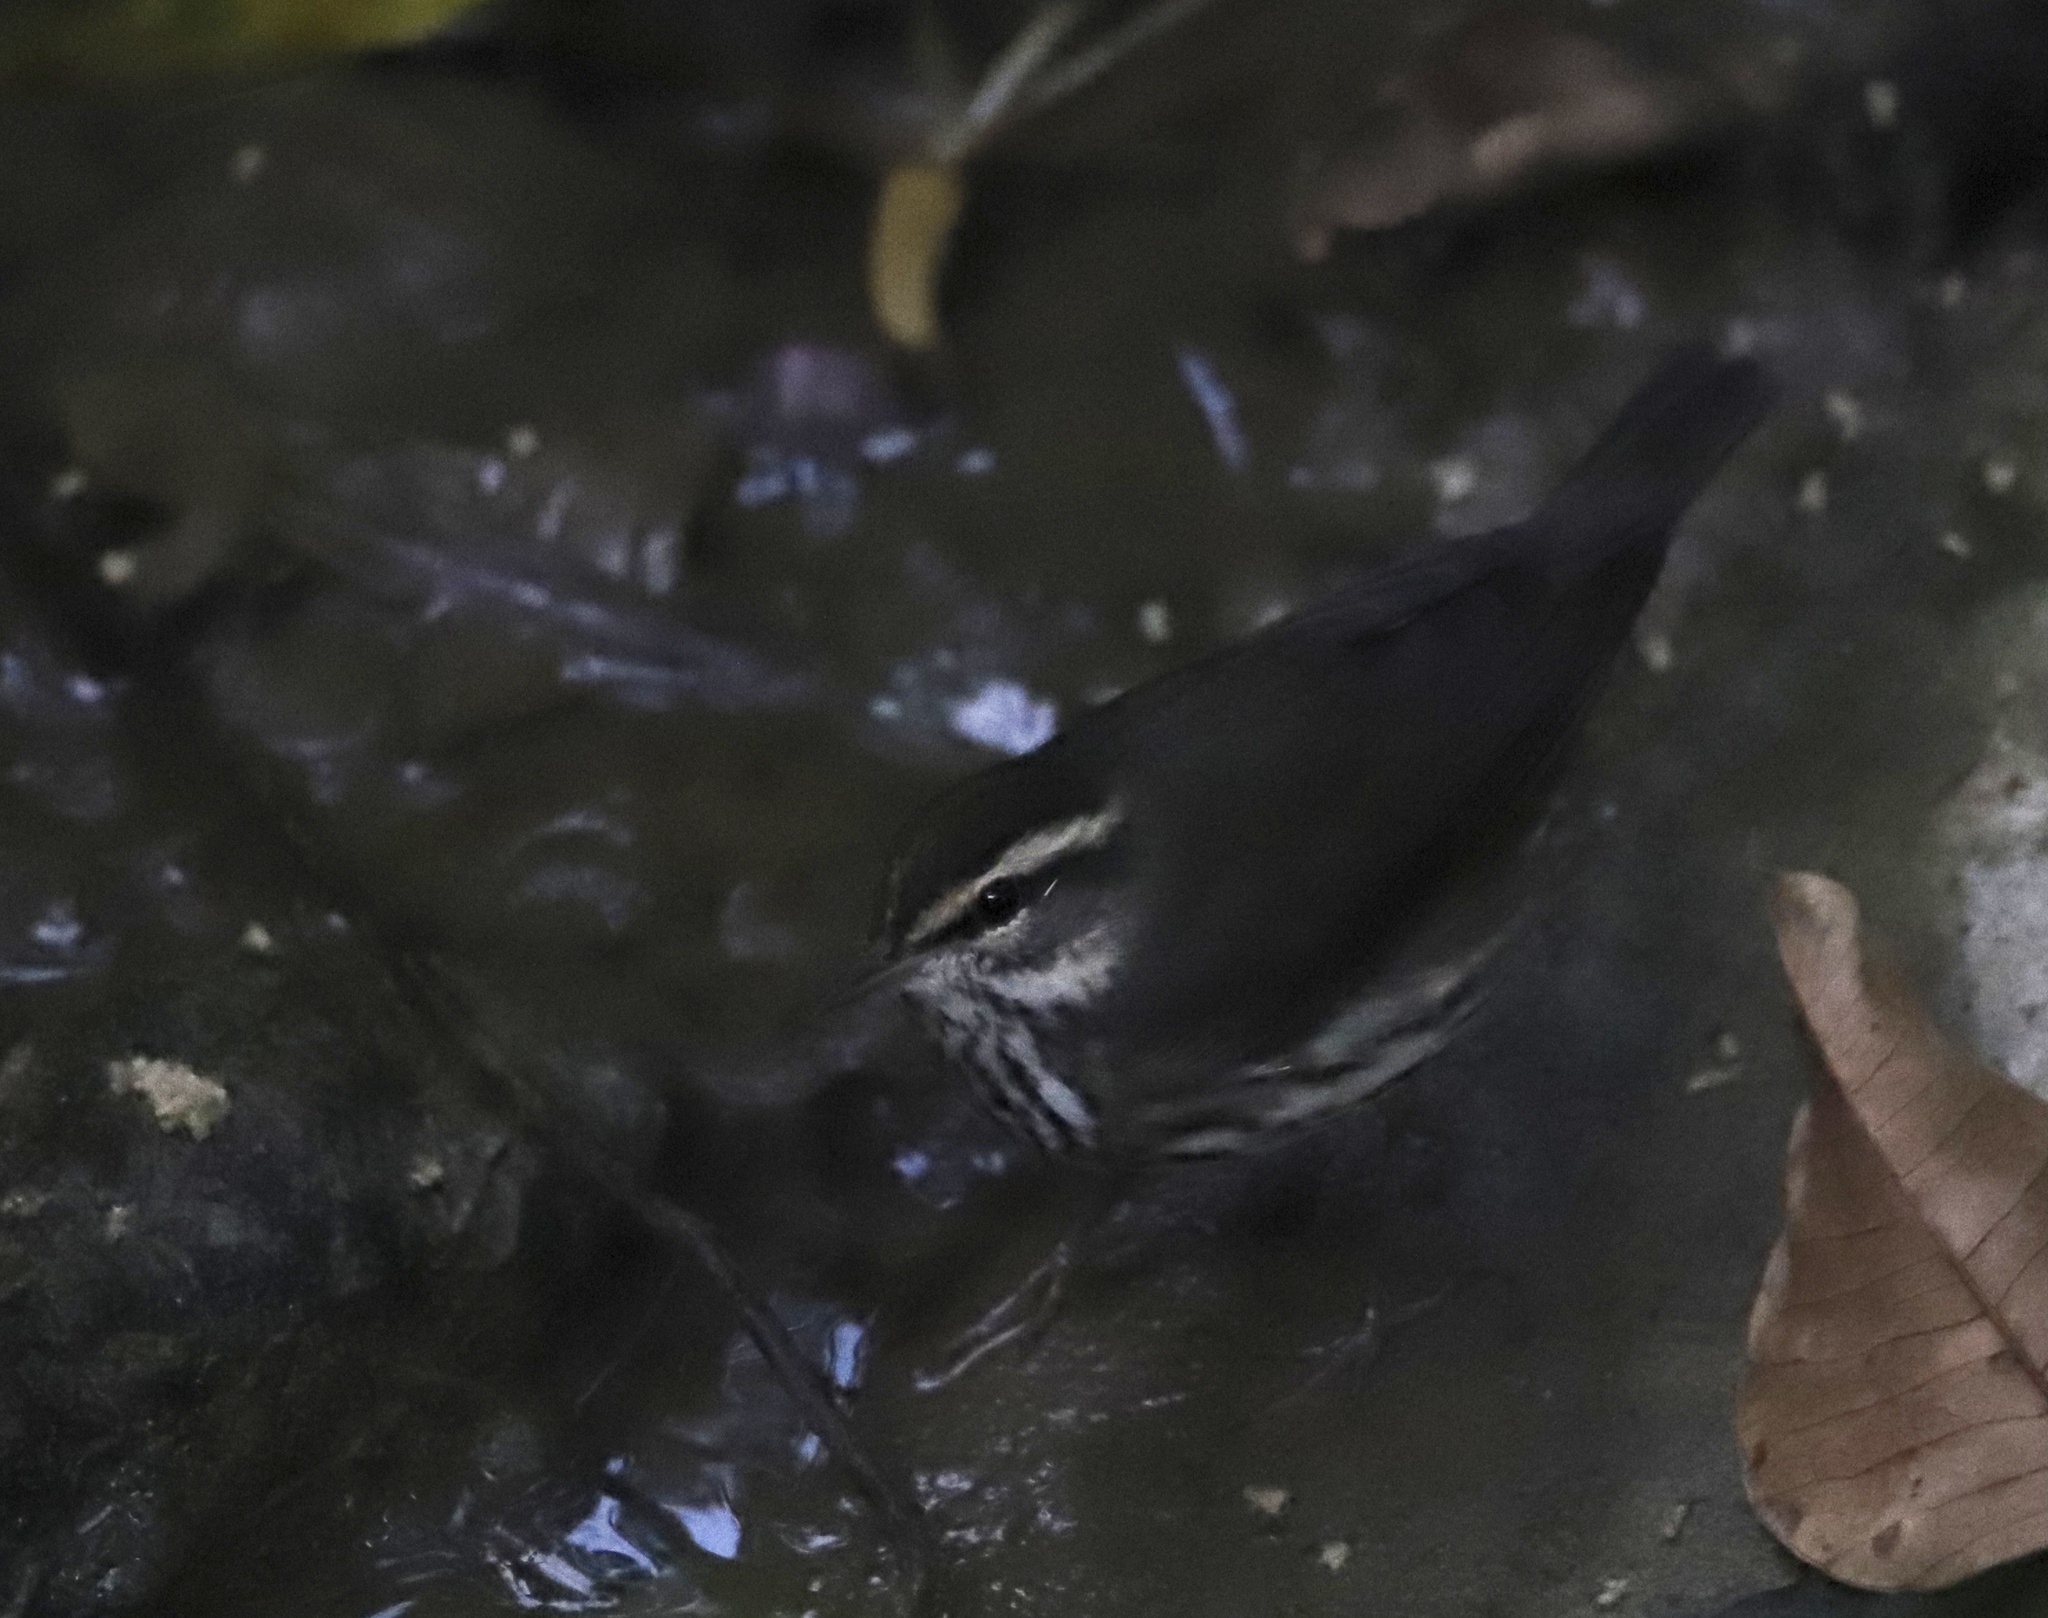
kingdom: Animalia
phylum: Chordata
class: Aves
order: Passeriformes
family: Parulidae
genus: Parkesia
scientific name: Parkesia noveboracensis
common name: Northern waterthrush
